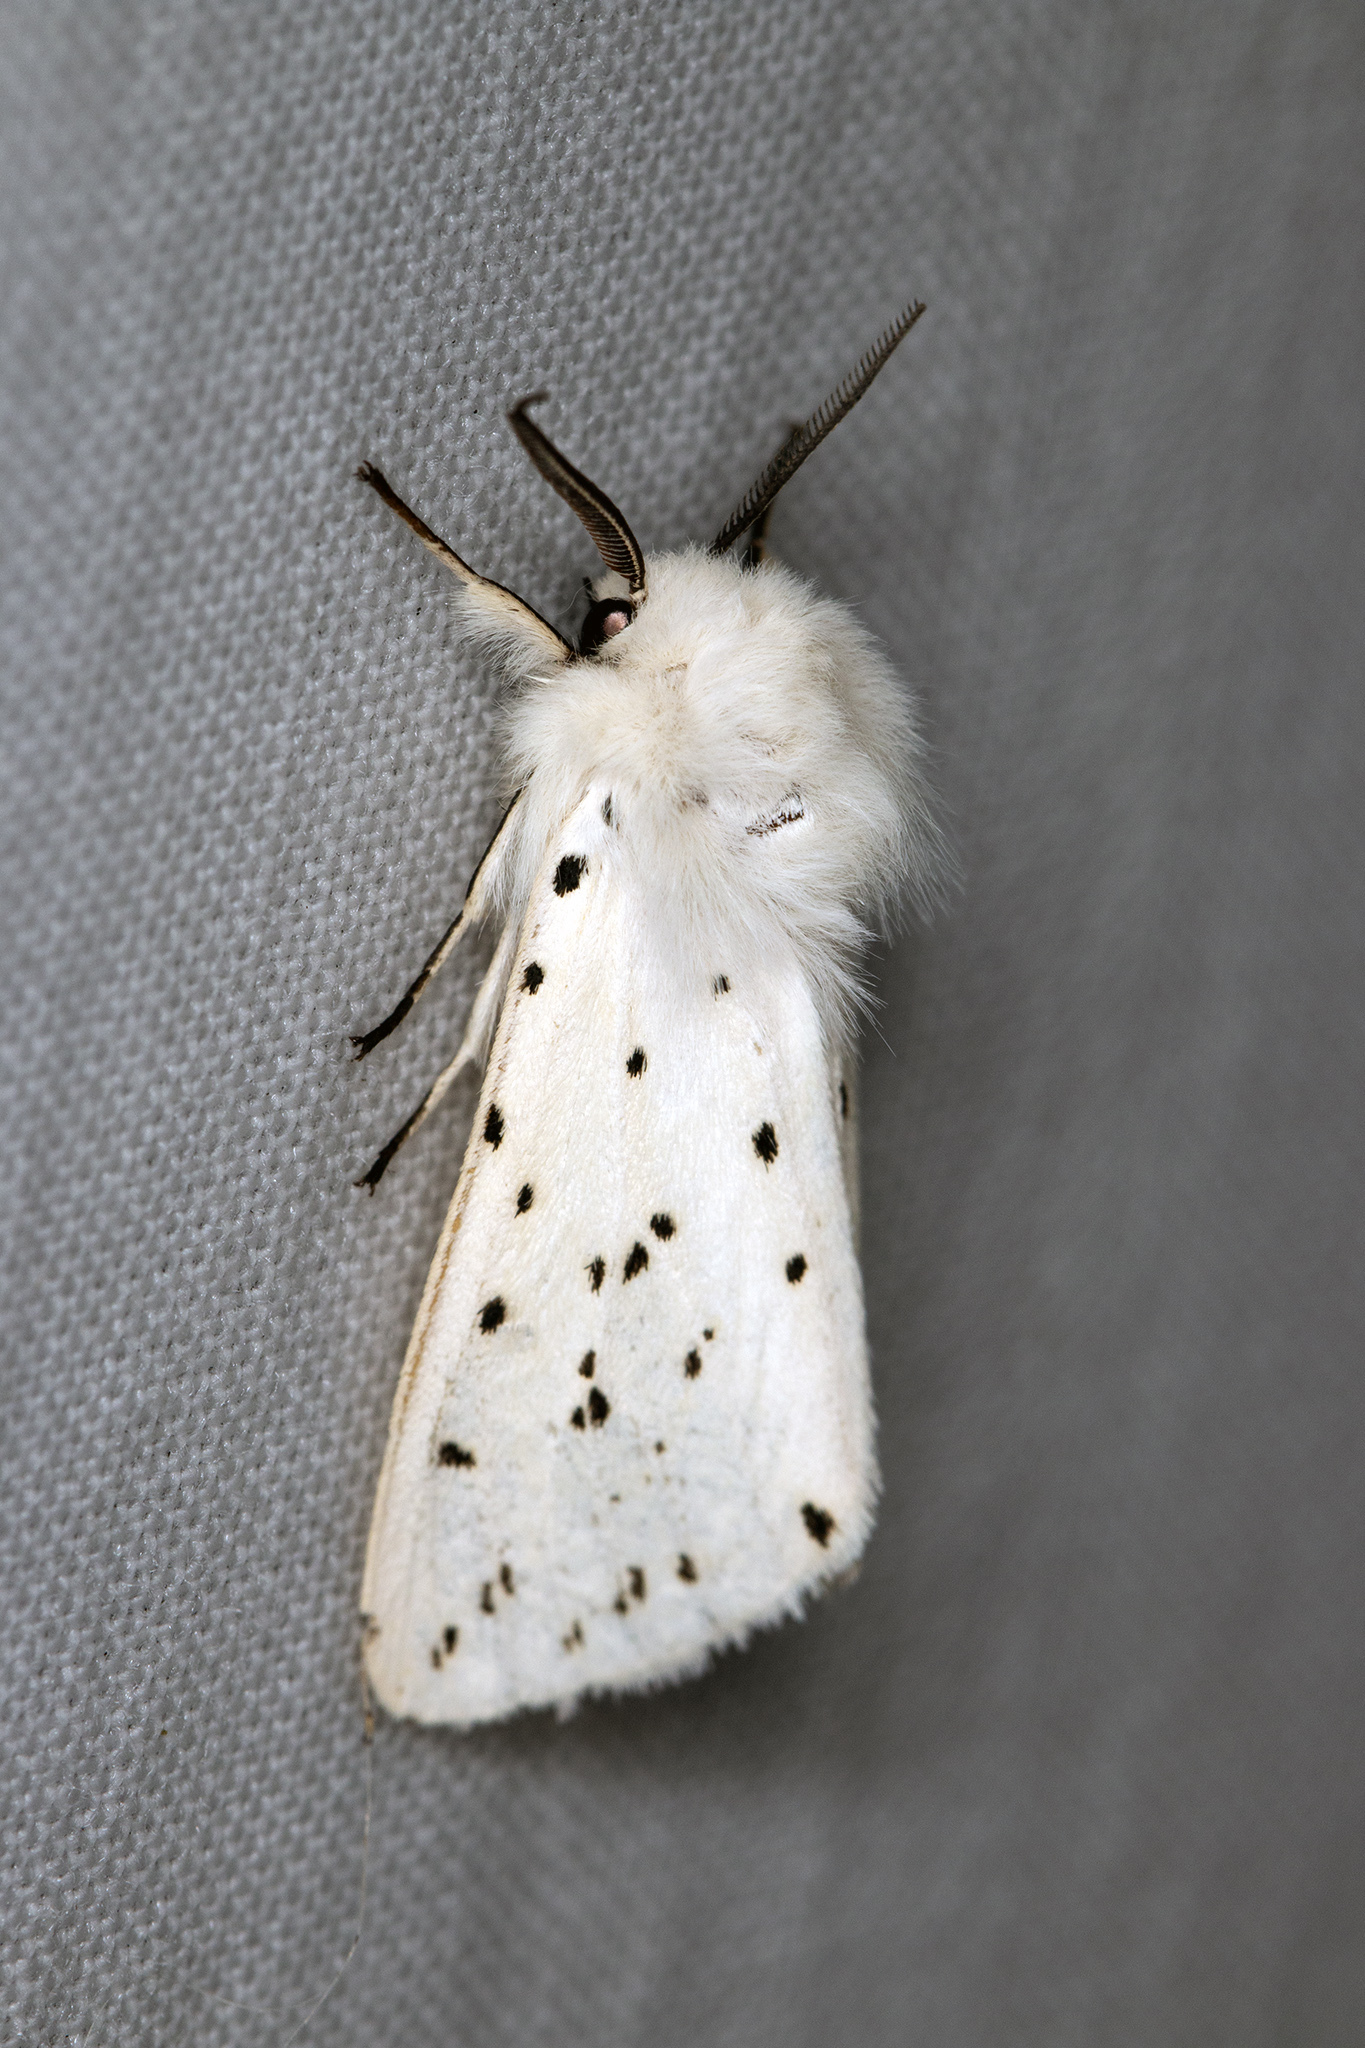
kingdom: Animalia
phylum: Arthropoda
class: Insecta
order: Lepidoptera
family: Erebidae
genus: Spilosoma
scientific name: Spilosoma lubricipeda
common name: White ermine
